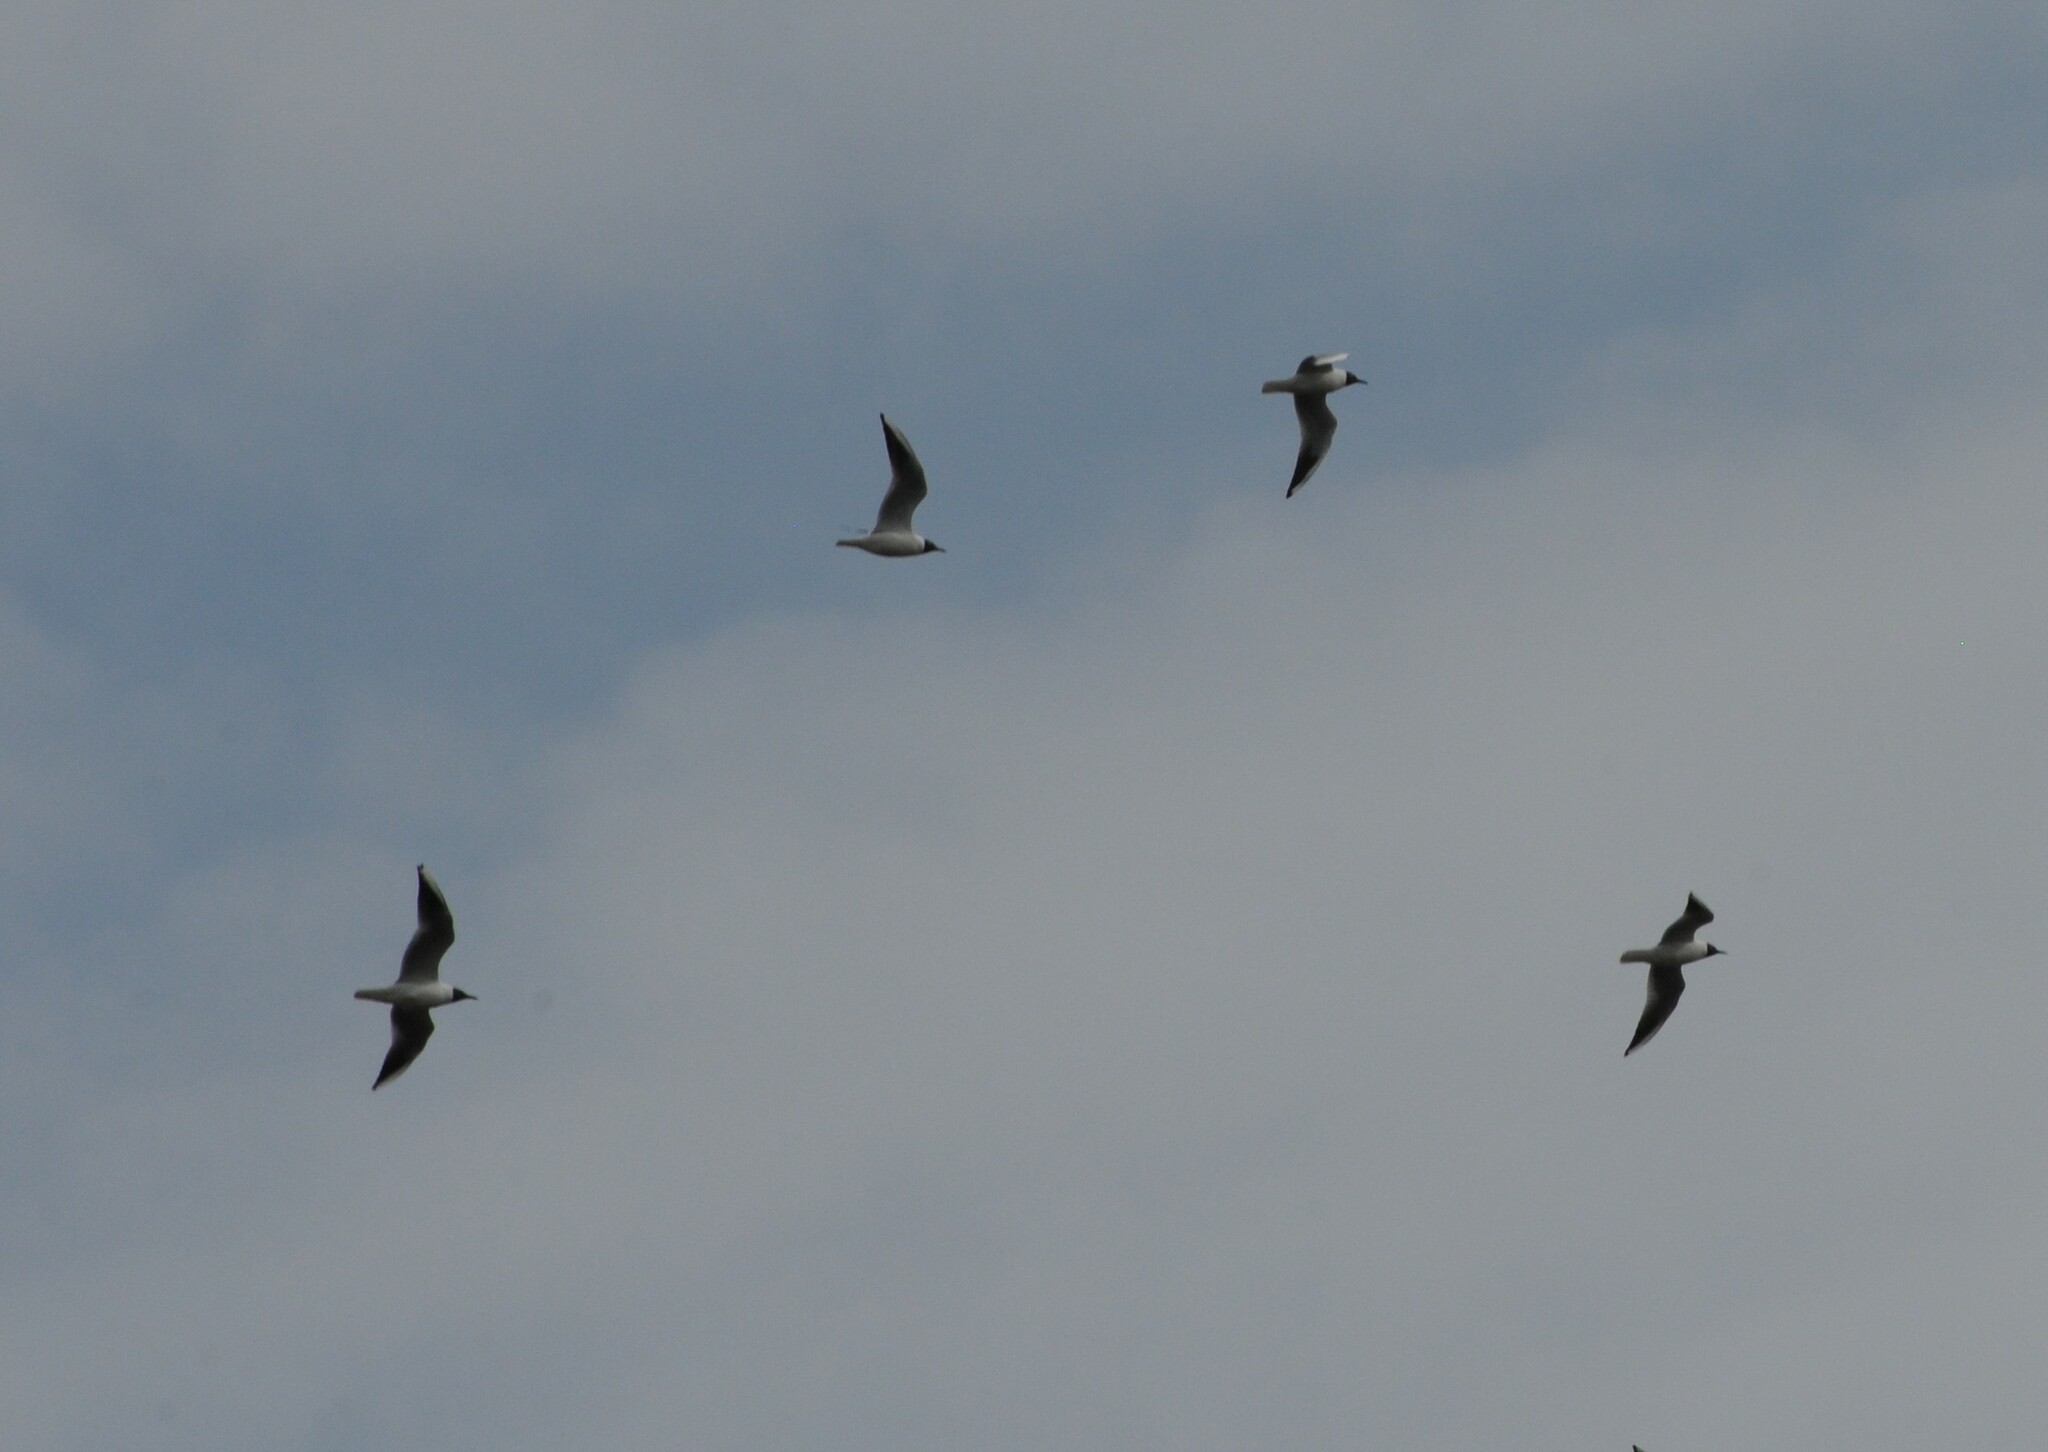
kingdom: Animalia
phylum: Chordata
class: Aves
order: Charadriiformes
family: Laridae
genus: Chroicocephalus
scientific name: Chroicocephalus ridibundus
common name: Black-headed gull
